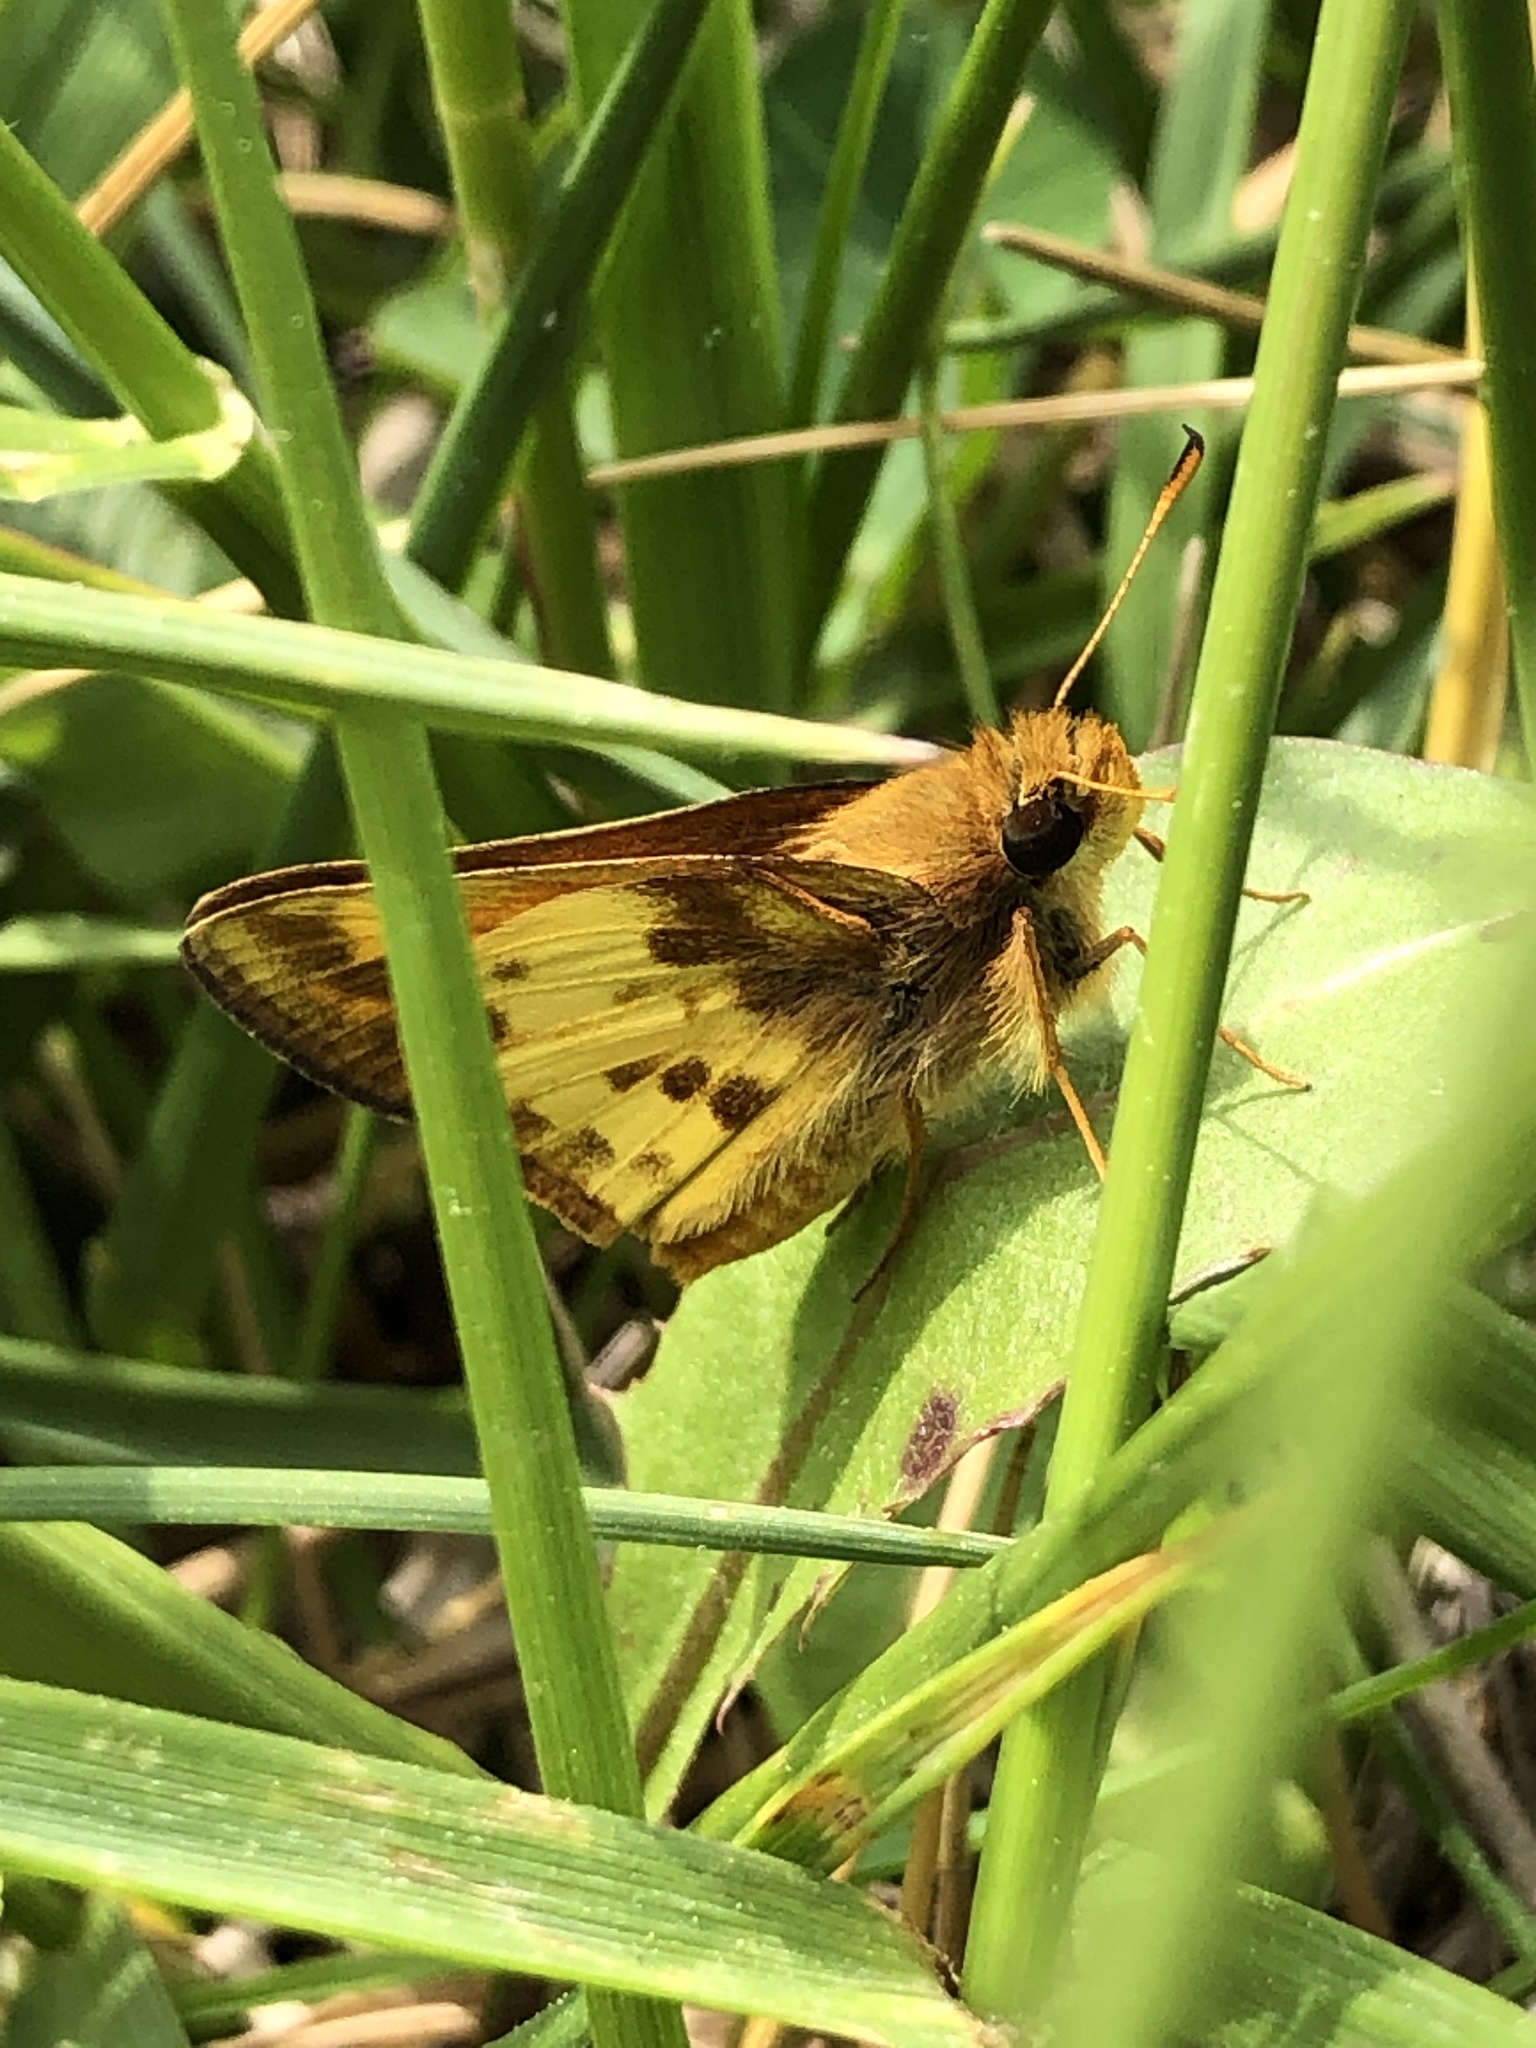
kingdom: Animalia
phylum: Arthropoda
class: Insecta
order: Lepidoptera
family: Hesperiidae
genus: Lon
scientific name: Lon zabulon
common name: Zabulon skipper
